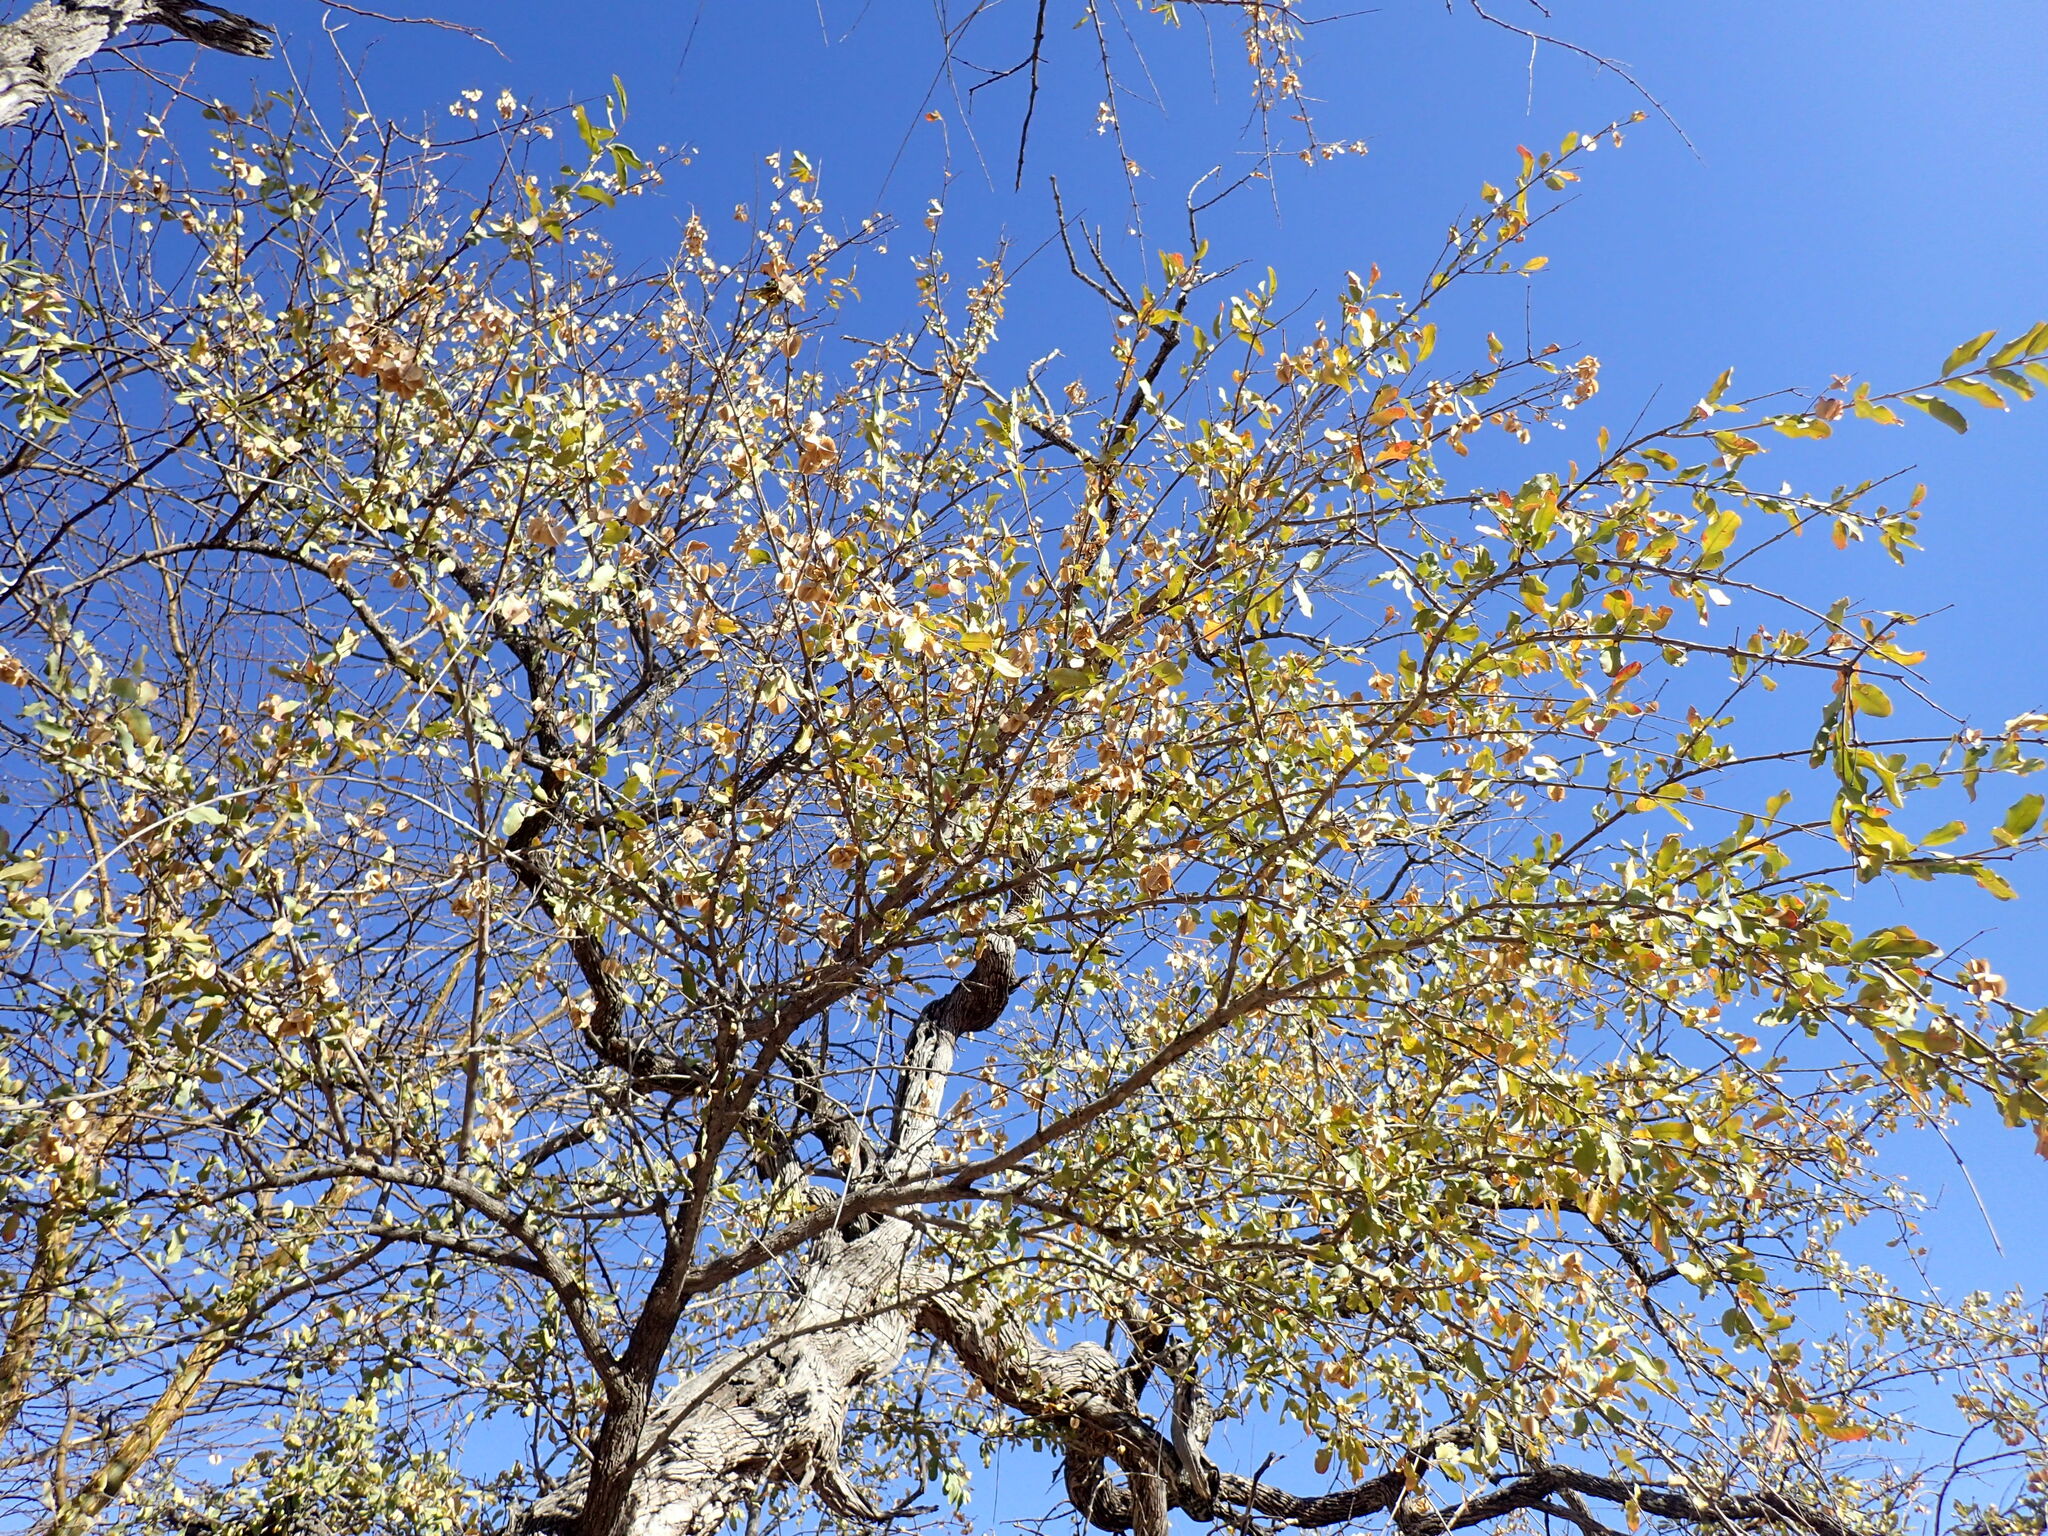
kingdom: Plantae
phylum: Tracheophyta
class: Magnoliopsida
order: Myrtales
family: Combretaceae
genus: Combretum
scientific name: Combretum imberbe
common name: Leadwood
